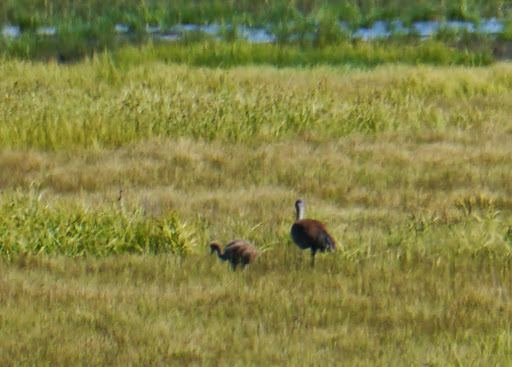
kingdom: Animalia
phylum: Chordata
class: Aves
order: Gruiformes
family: Gruidae
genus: Grus
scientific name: Grus canadensis
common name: Sandhill crane
